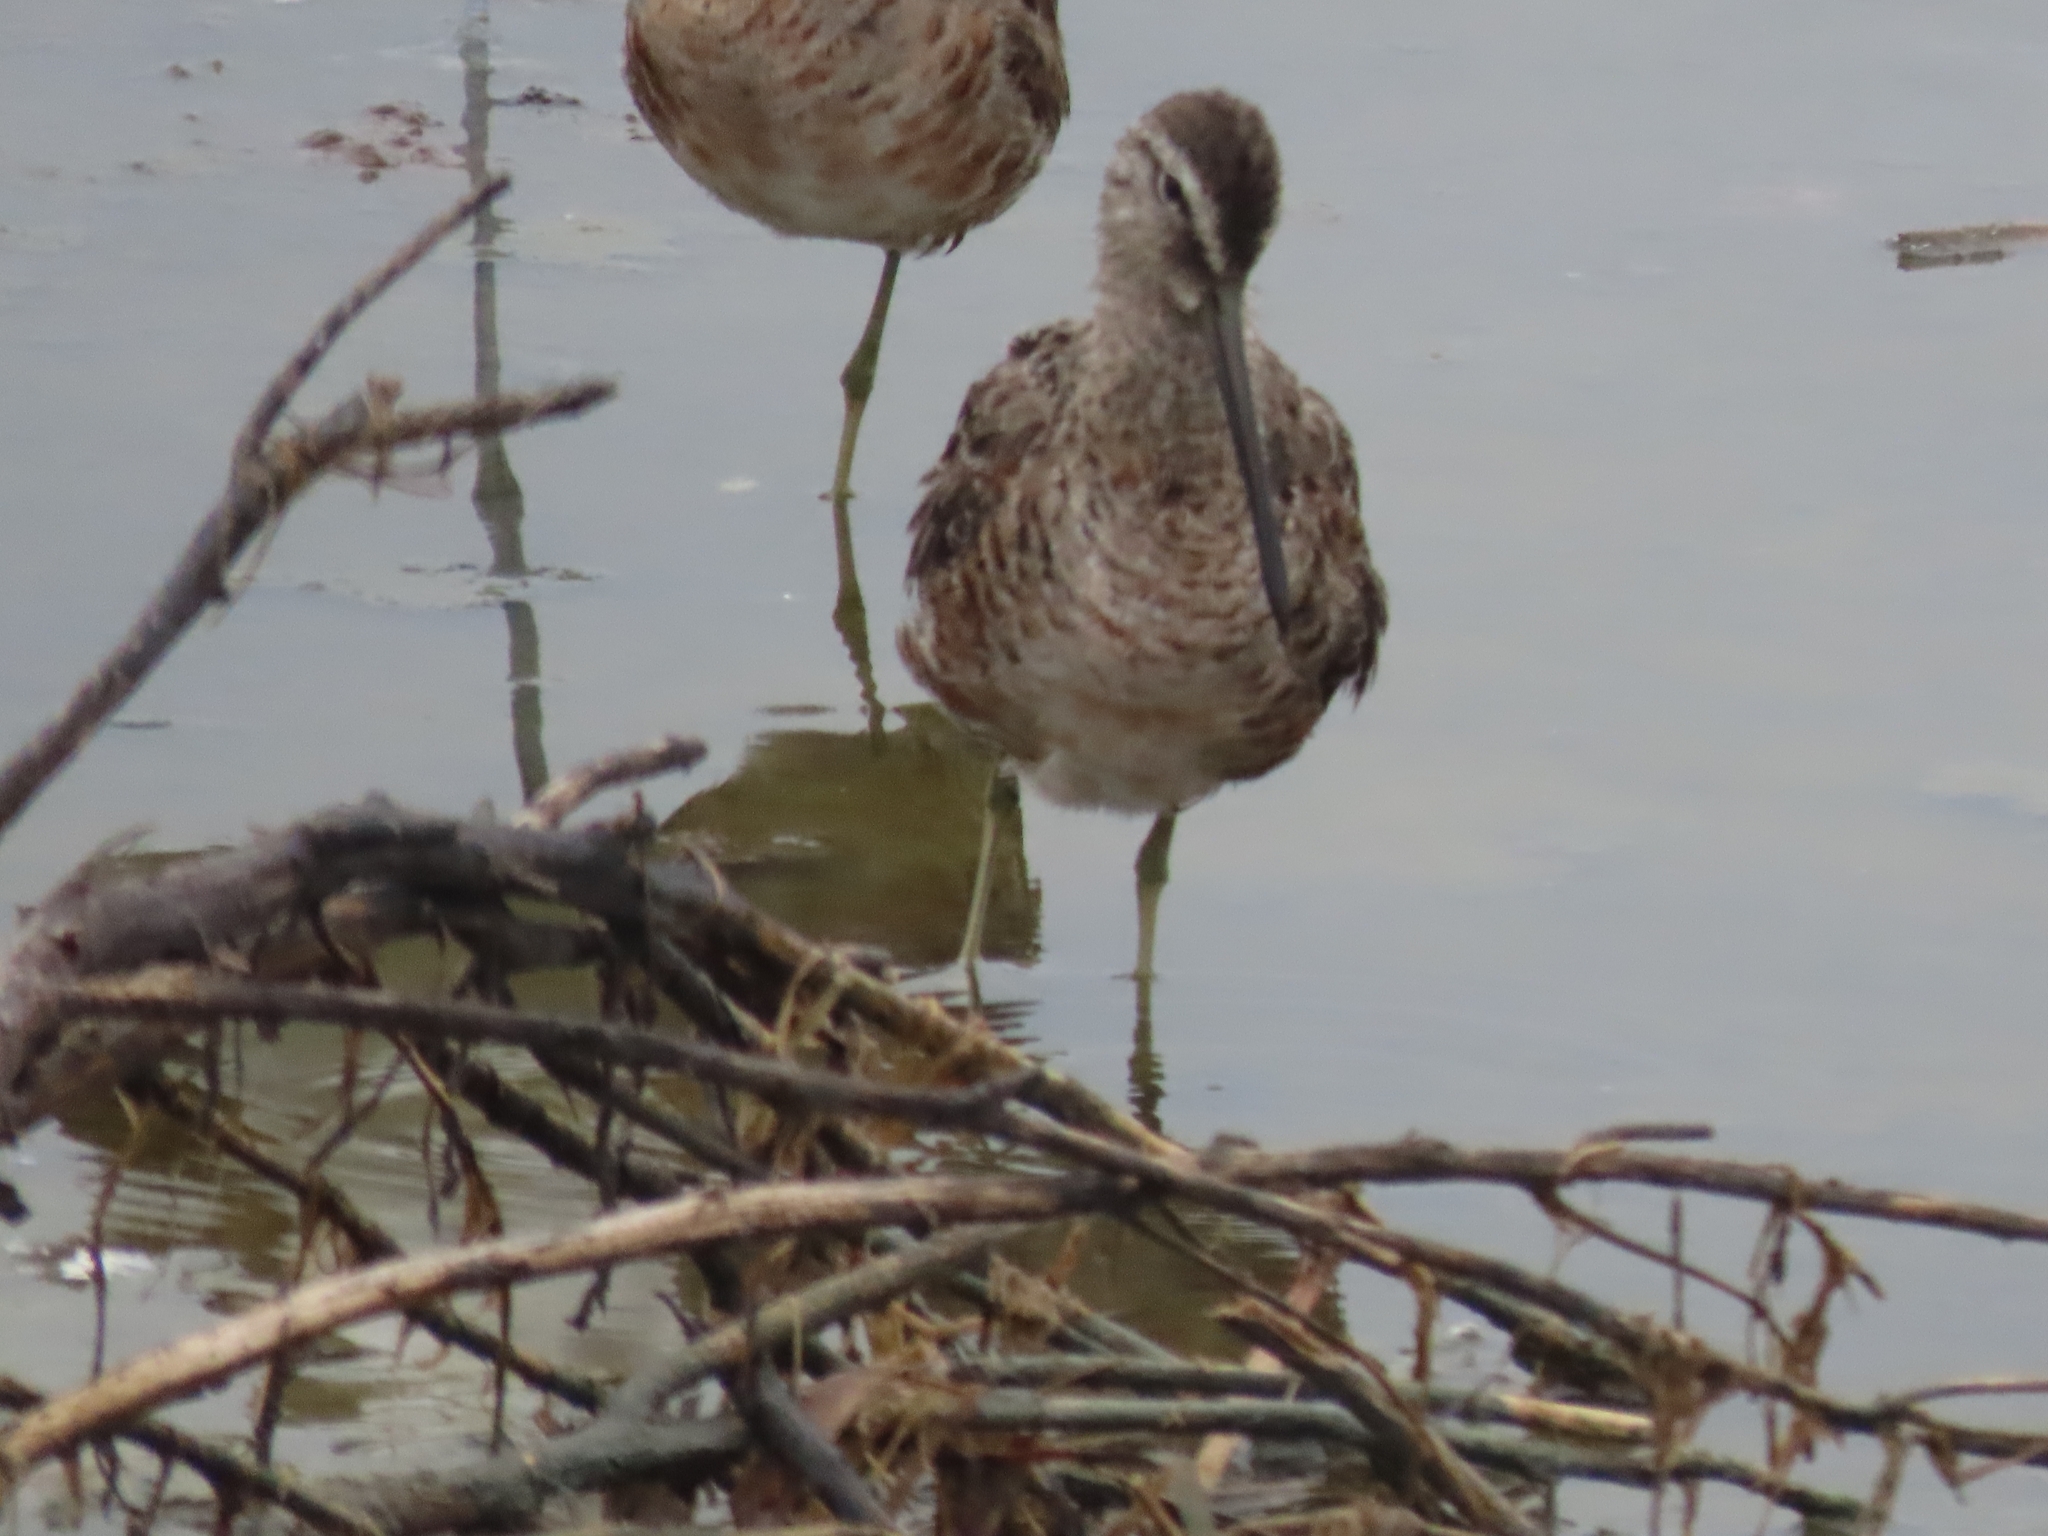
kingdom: Animalia
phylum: Chordata
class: Aves
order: Charadriiformes
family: Scolopacidae
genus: Limnodromus
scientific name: Limnodromus
